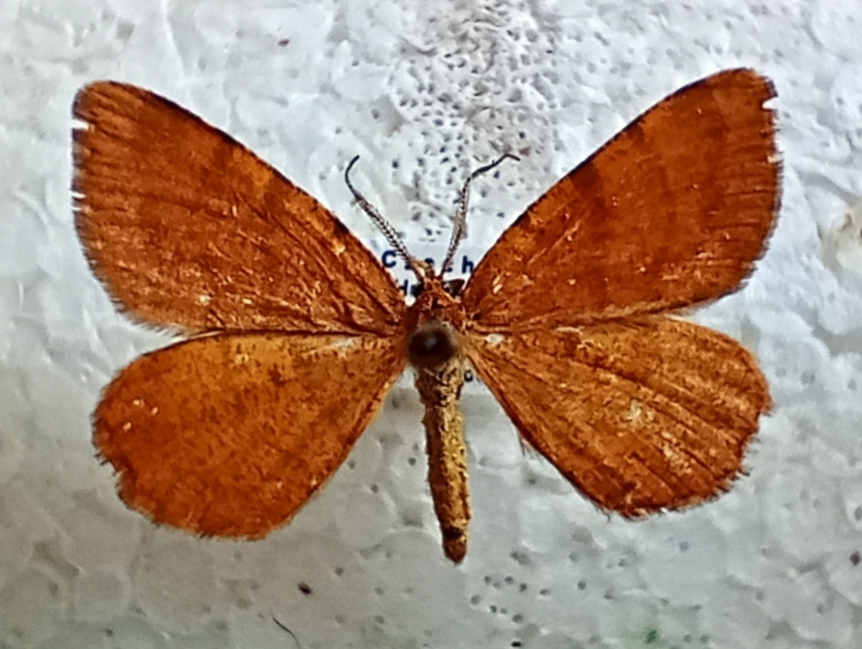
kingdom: Animalia
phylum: Arthropoda
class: Insecta
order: Lepidoptera
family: Geometridae
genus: Macaria
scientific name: Macaria brunneata
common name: Rannoch looper
